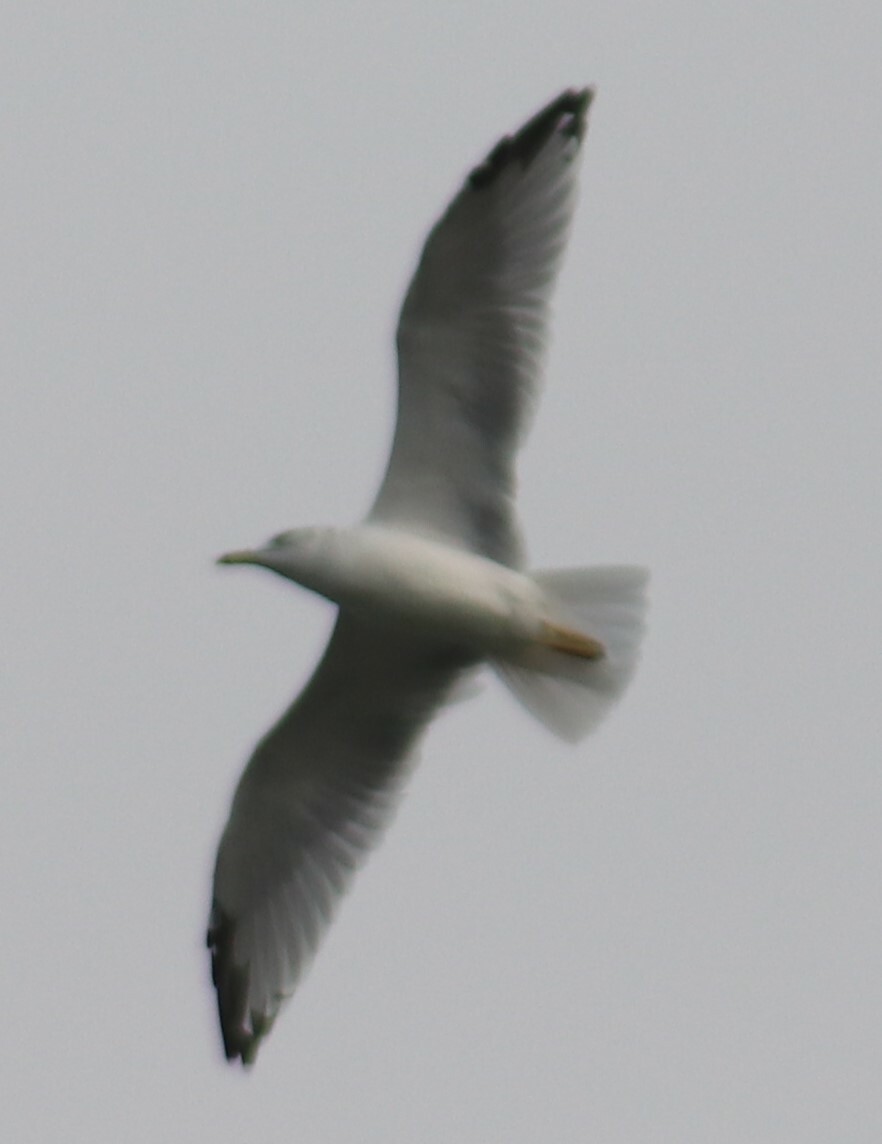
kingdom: Animalia
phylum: Chordata
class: Aves
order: Charadriiformes
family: Laridae
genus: Larus
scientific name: Larus delawarensis
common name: Ring-billed gull
